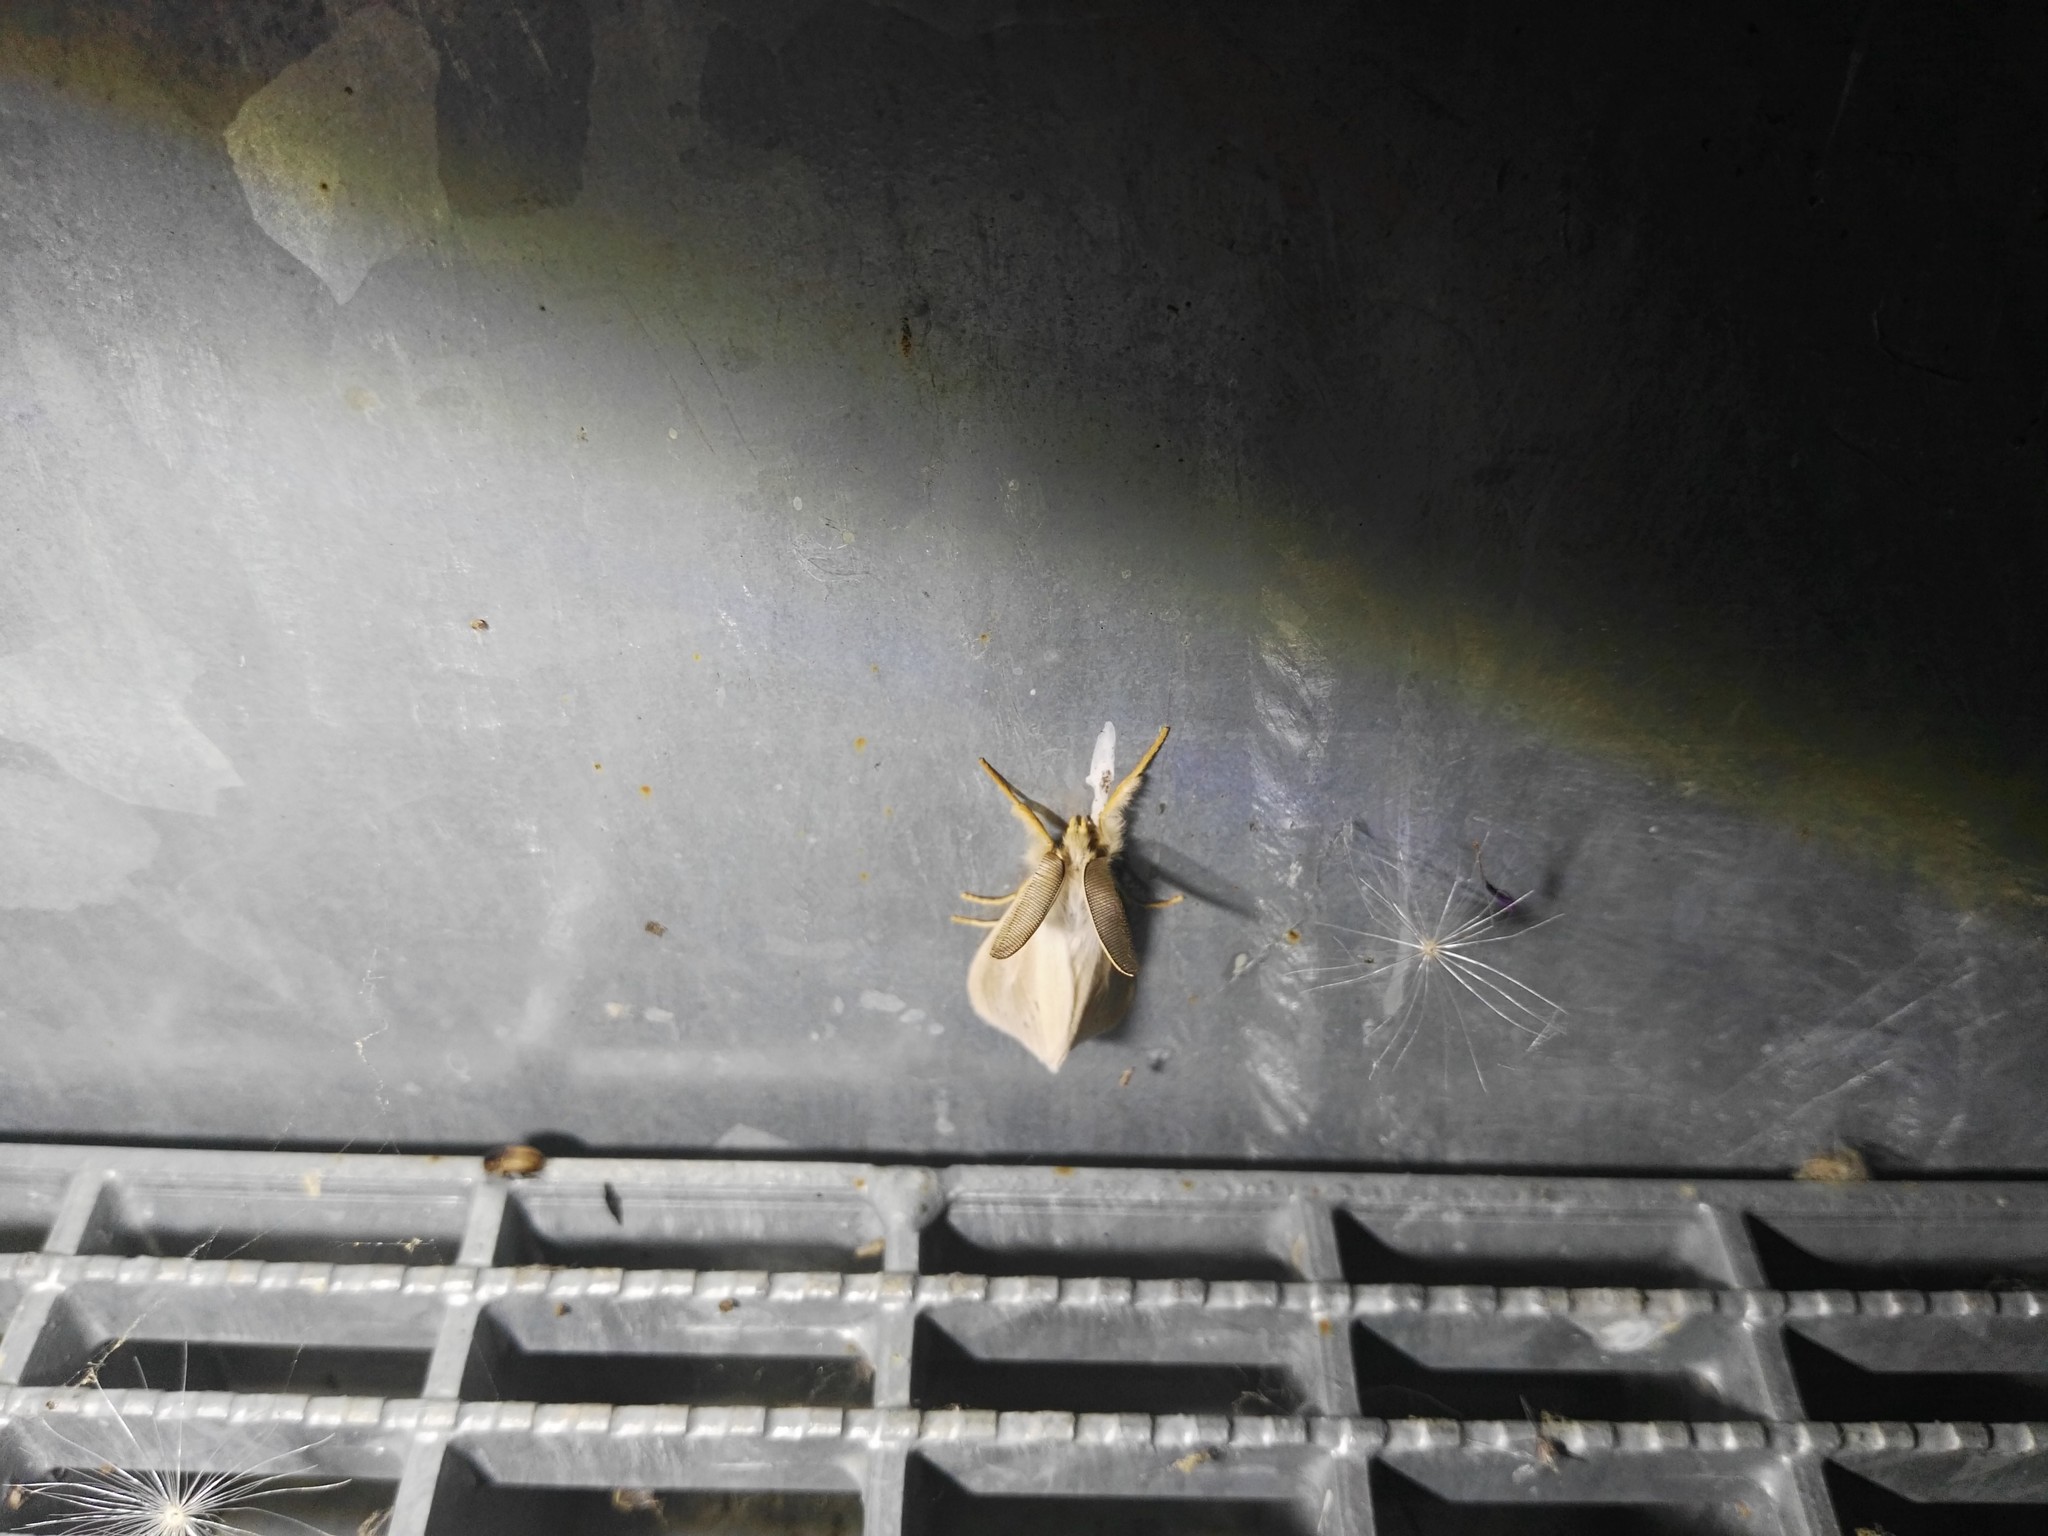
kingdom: Animalia
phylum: Arthropoda
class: Insecta
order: Lepidoptera
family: Erebidae
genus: Laelia
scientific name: Laelia coenosa
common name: Reed tussock
